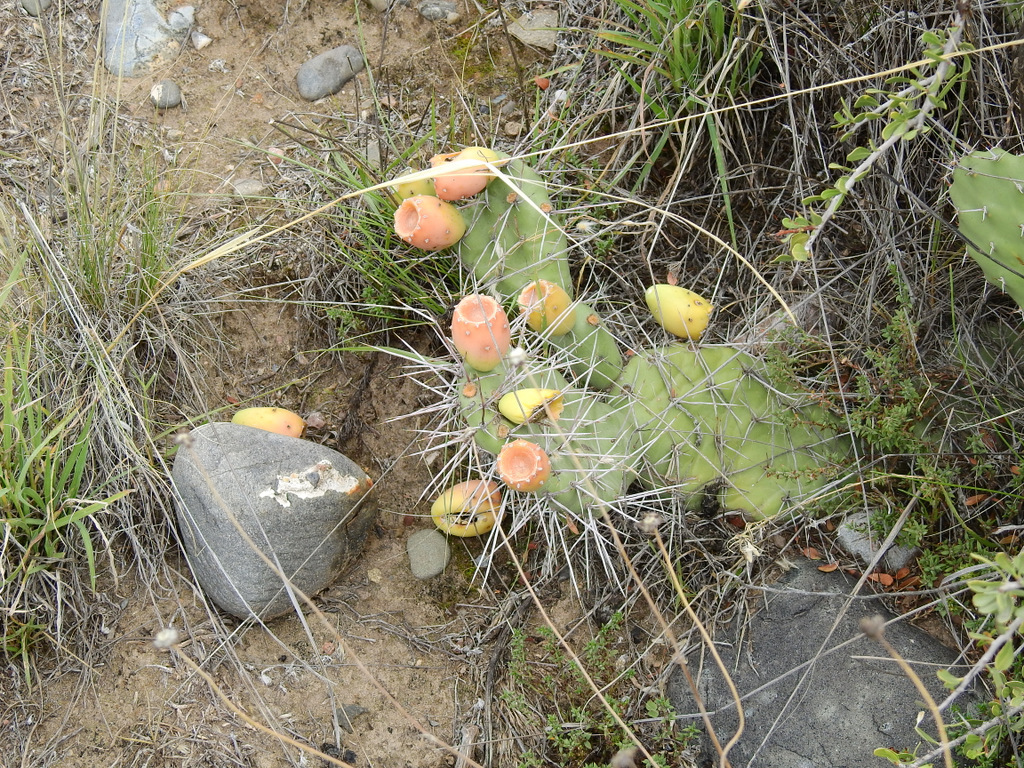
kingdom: Plantae
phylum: Tracheophyta
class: Magnoliopsida
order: Caryophyllales
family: Cactaceae
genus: Opuntia
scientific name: Opuntia sulphurea
